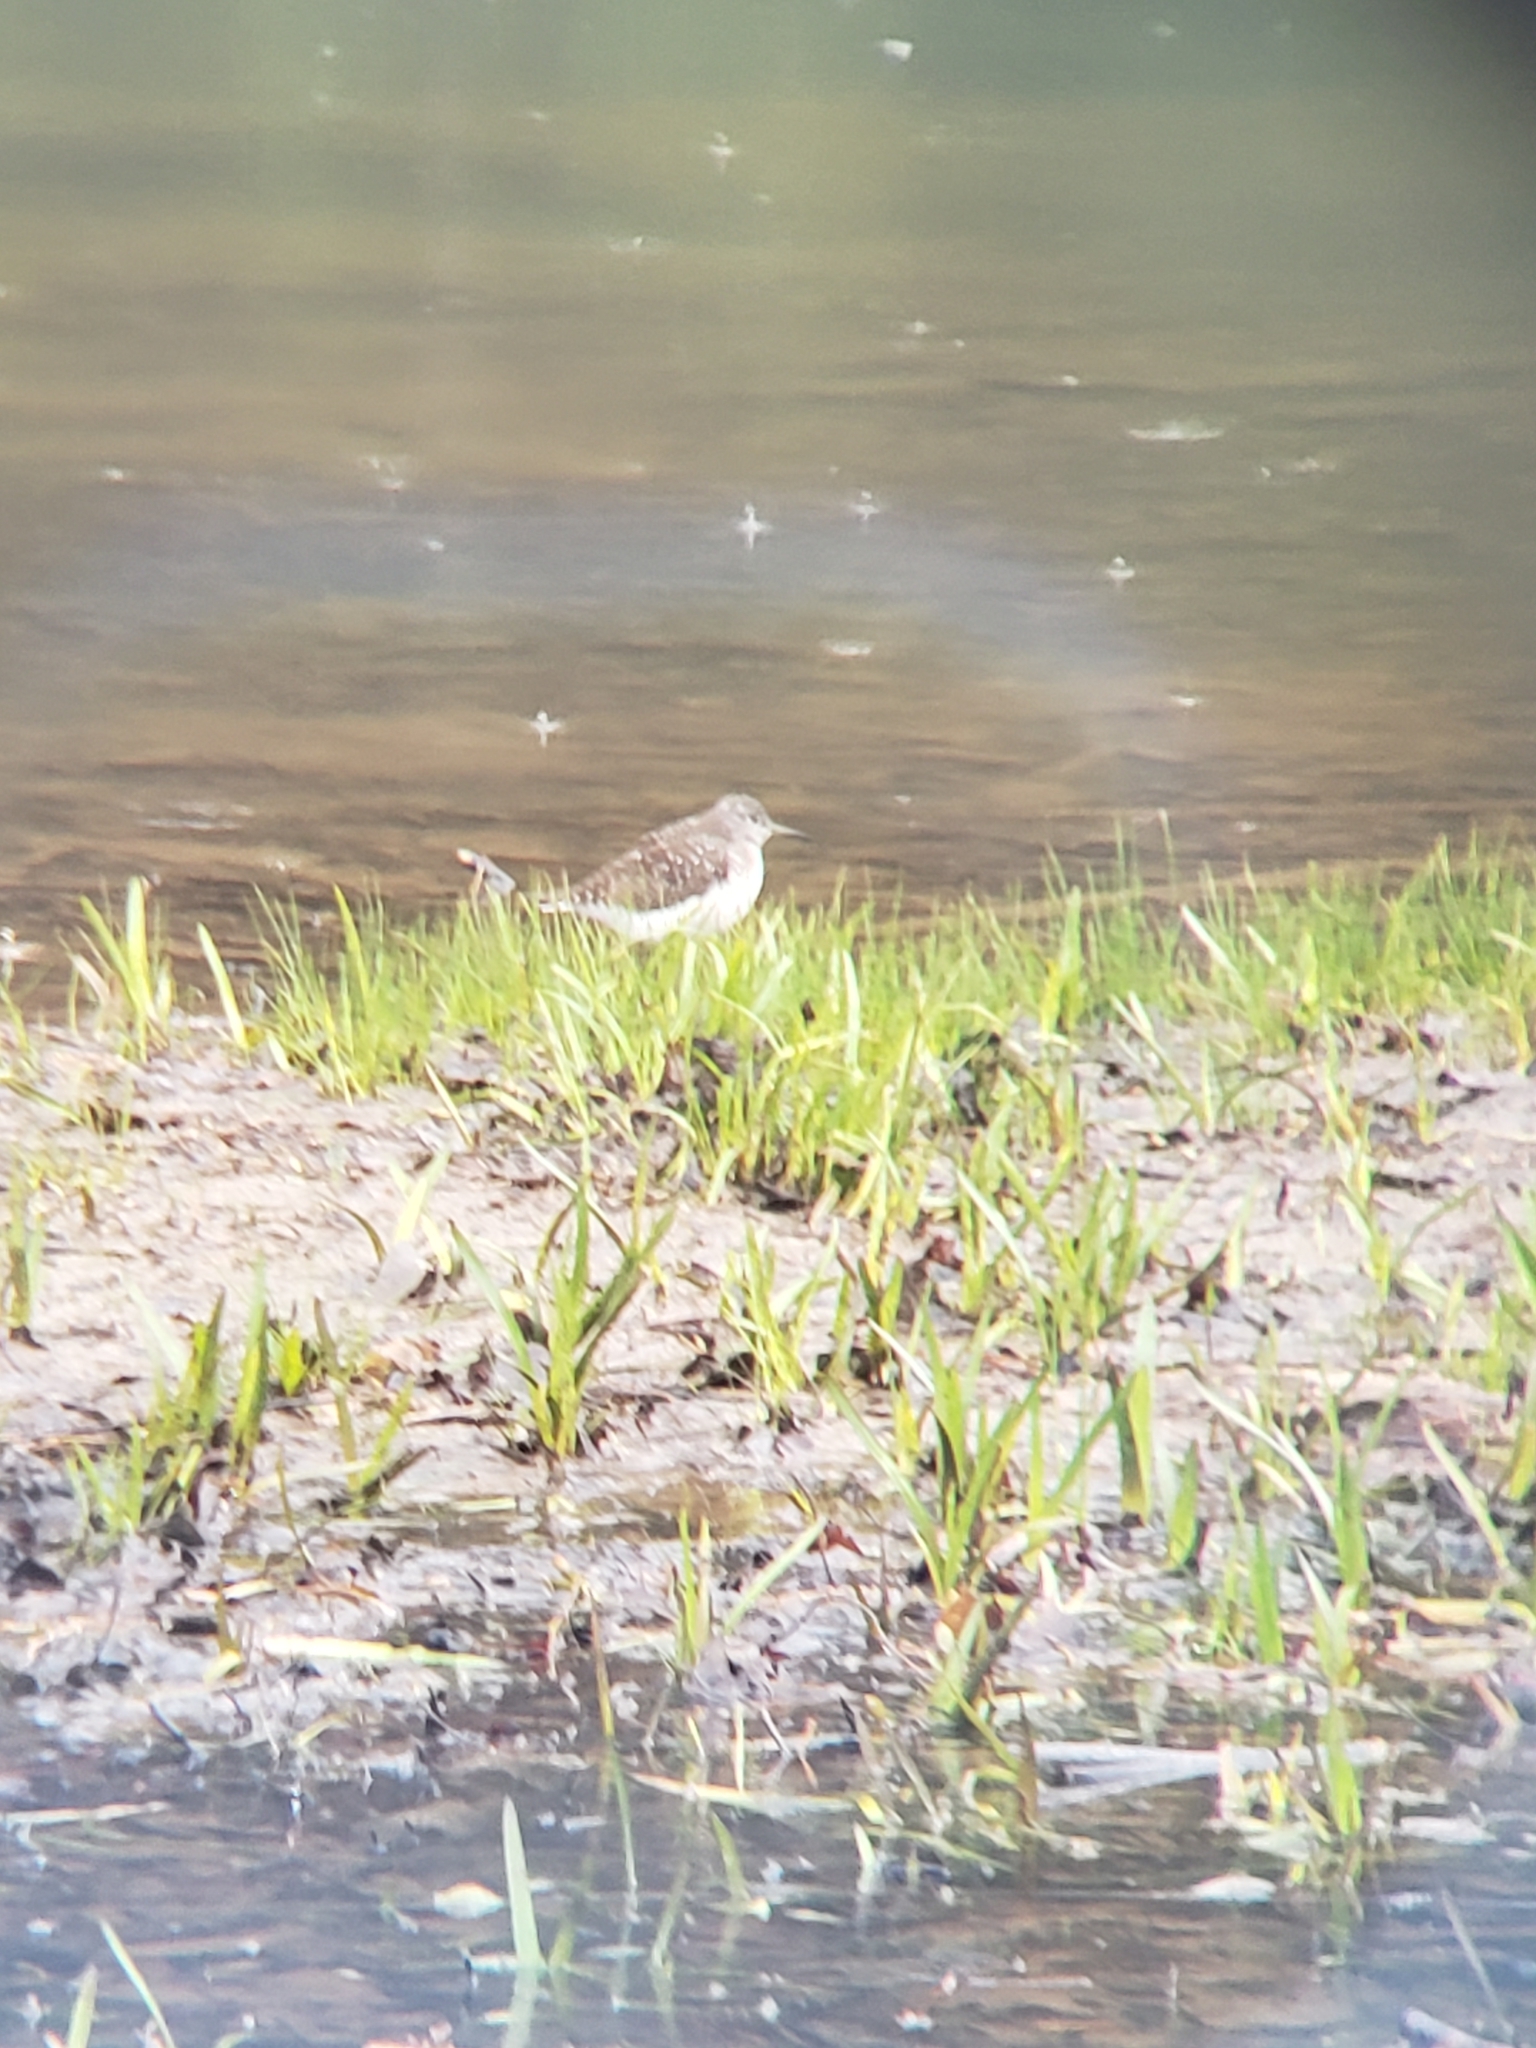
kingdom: Animalia
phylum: Chordata
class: Aves
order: Charadriiformes
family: Scolopacidae
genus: Tringa
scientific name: Tringa solitaria
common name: Solitary sandpiper
